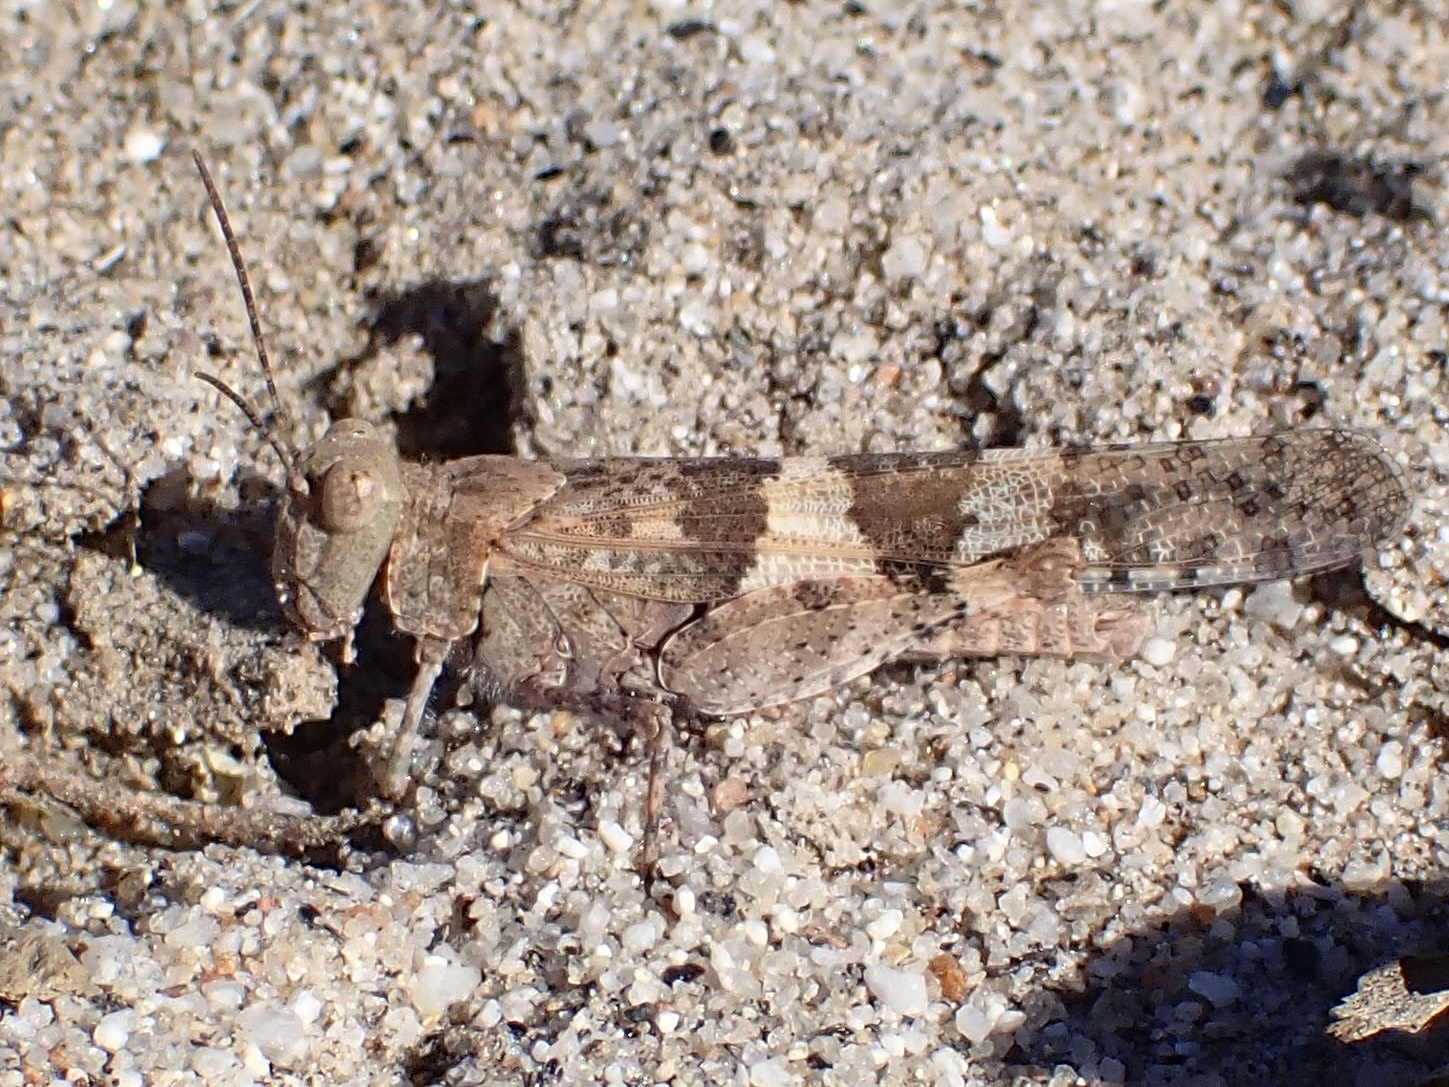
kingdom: Animalia
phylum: Arthropoda
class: Insecta
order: Orthoptera
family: Acrididae
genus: Trimerotropis
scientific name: Trimerotropis pallidipennis
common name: Pallid-winged grasshopper
